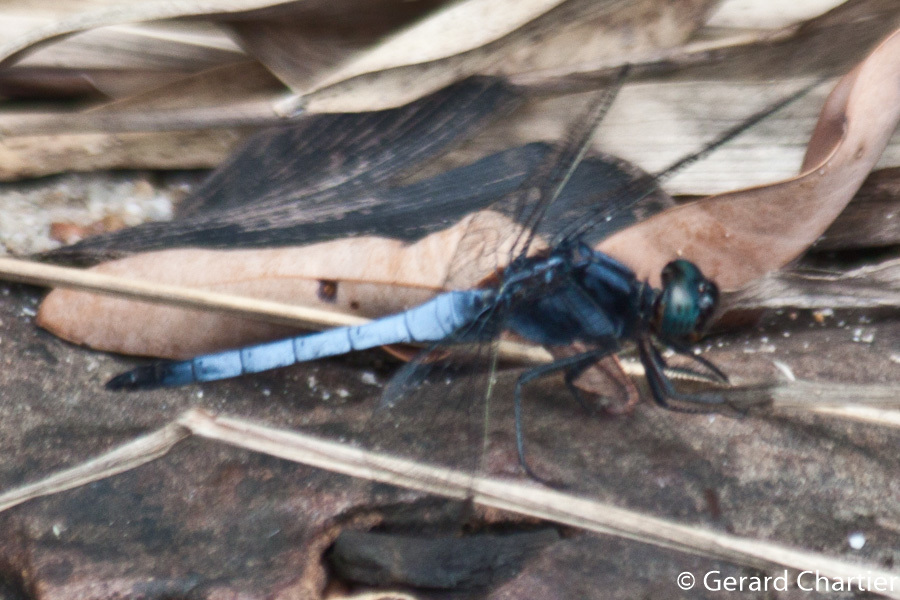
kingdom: Animalia
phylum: Arthropoda
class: Insecta
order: Odonata
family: Libellulidae
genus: Orthetrum
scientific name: Orthetrum glaucum
